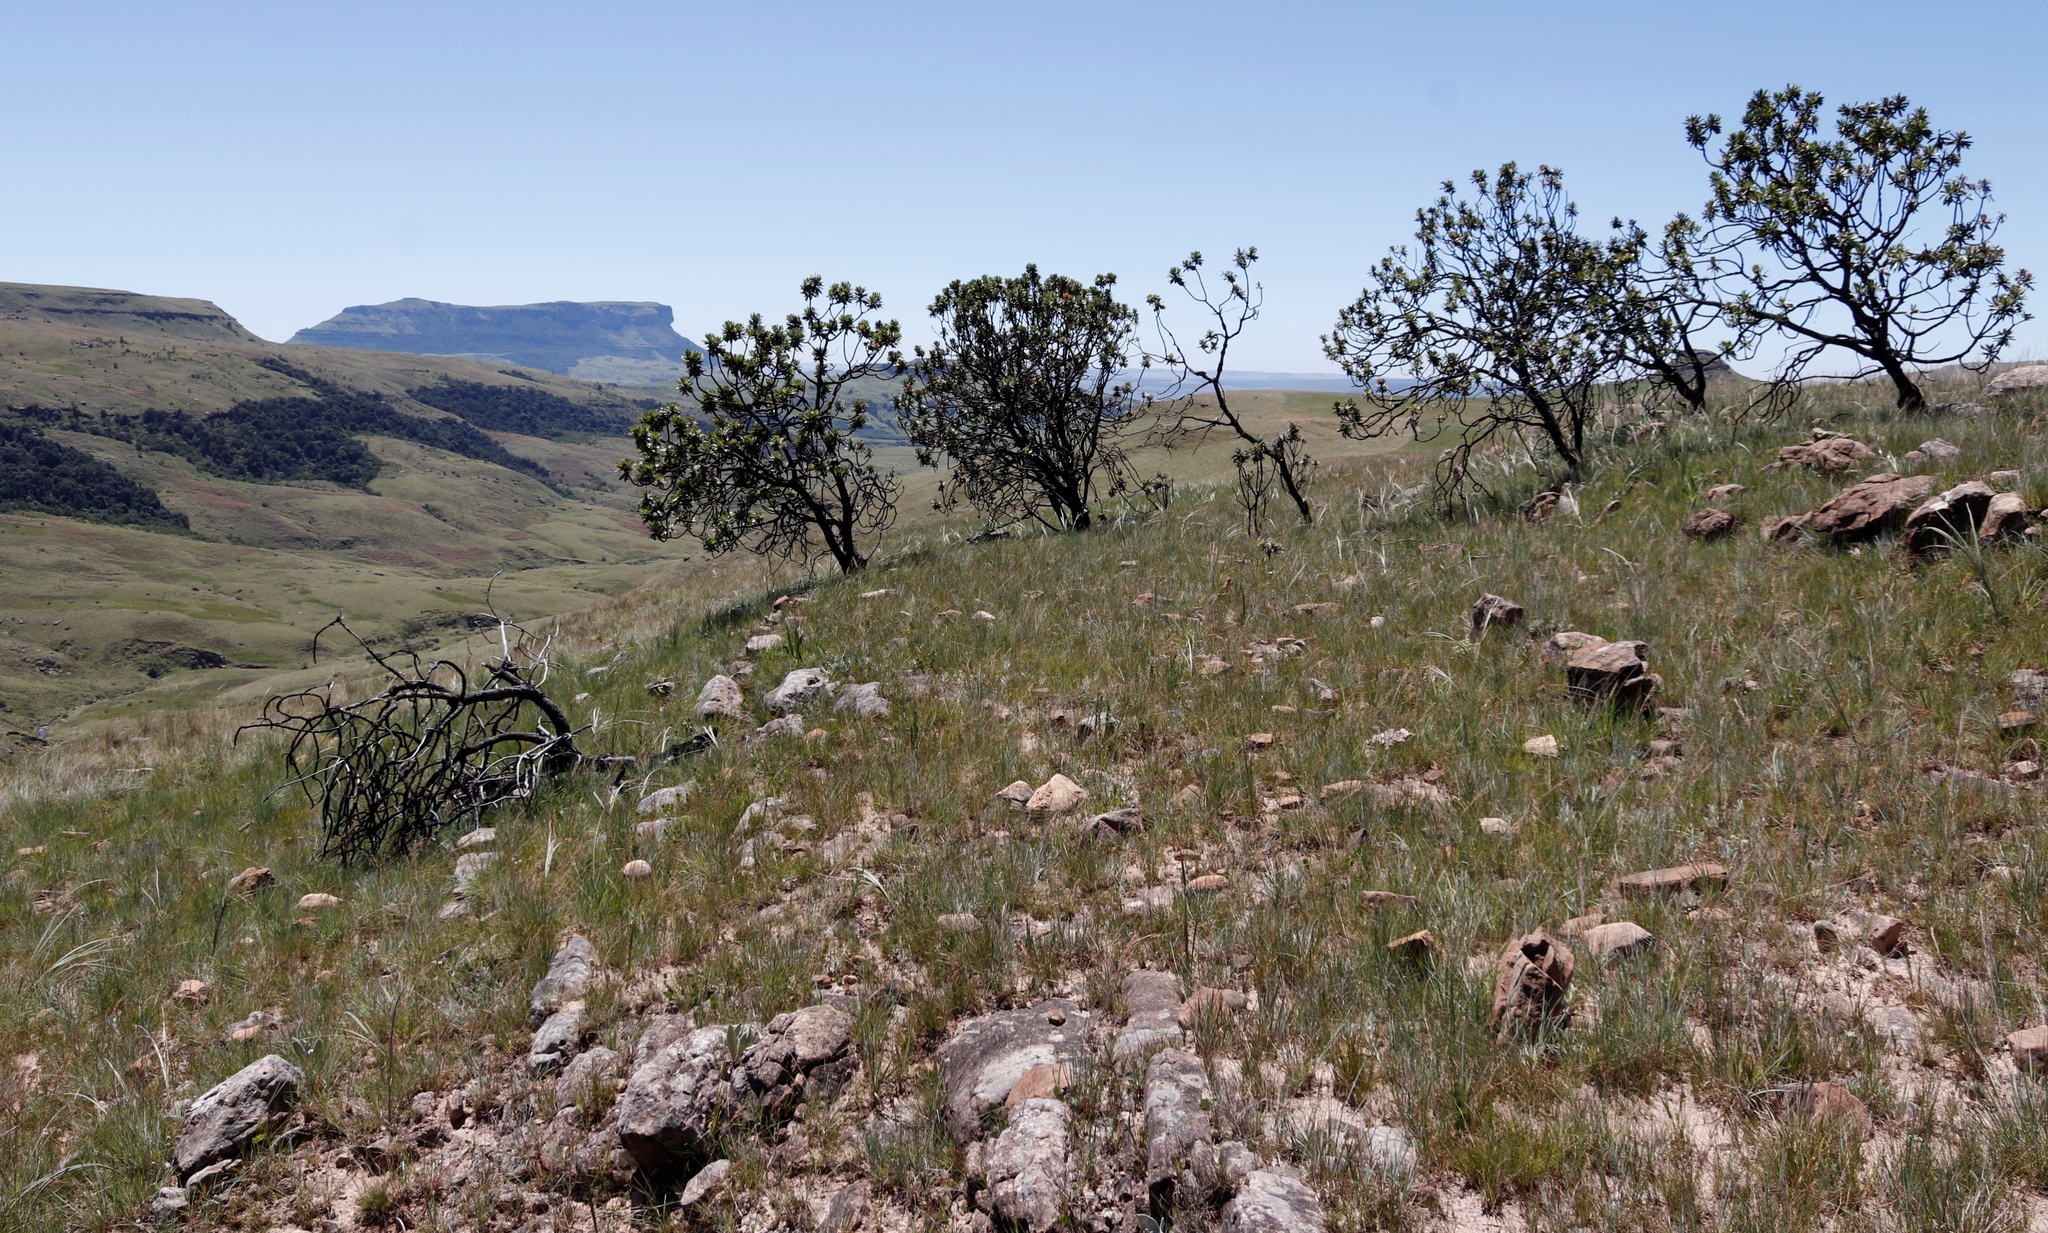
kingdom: Plantae
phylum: Tracheophyta
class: Magnoliopsida
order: Proteales
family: Proteaceae
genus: Protea
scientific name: Protea roupelliae
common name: Silver sugarbush
